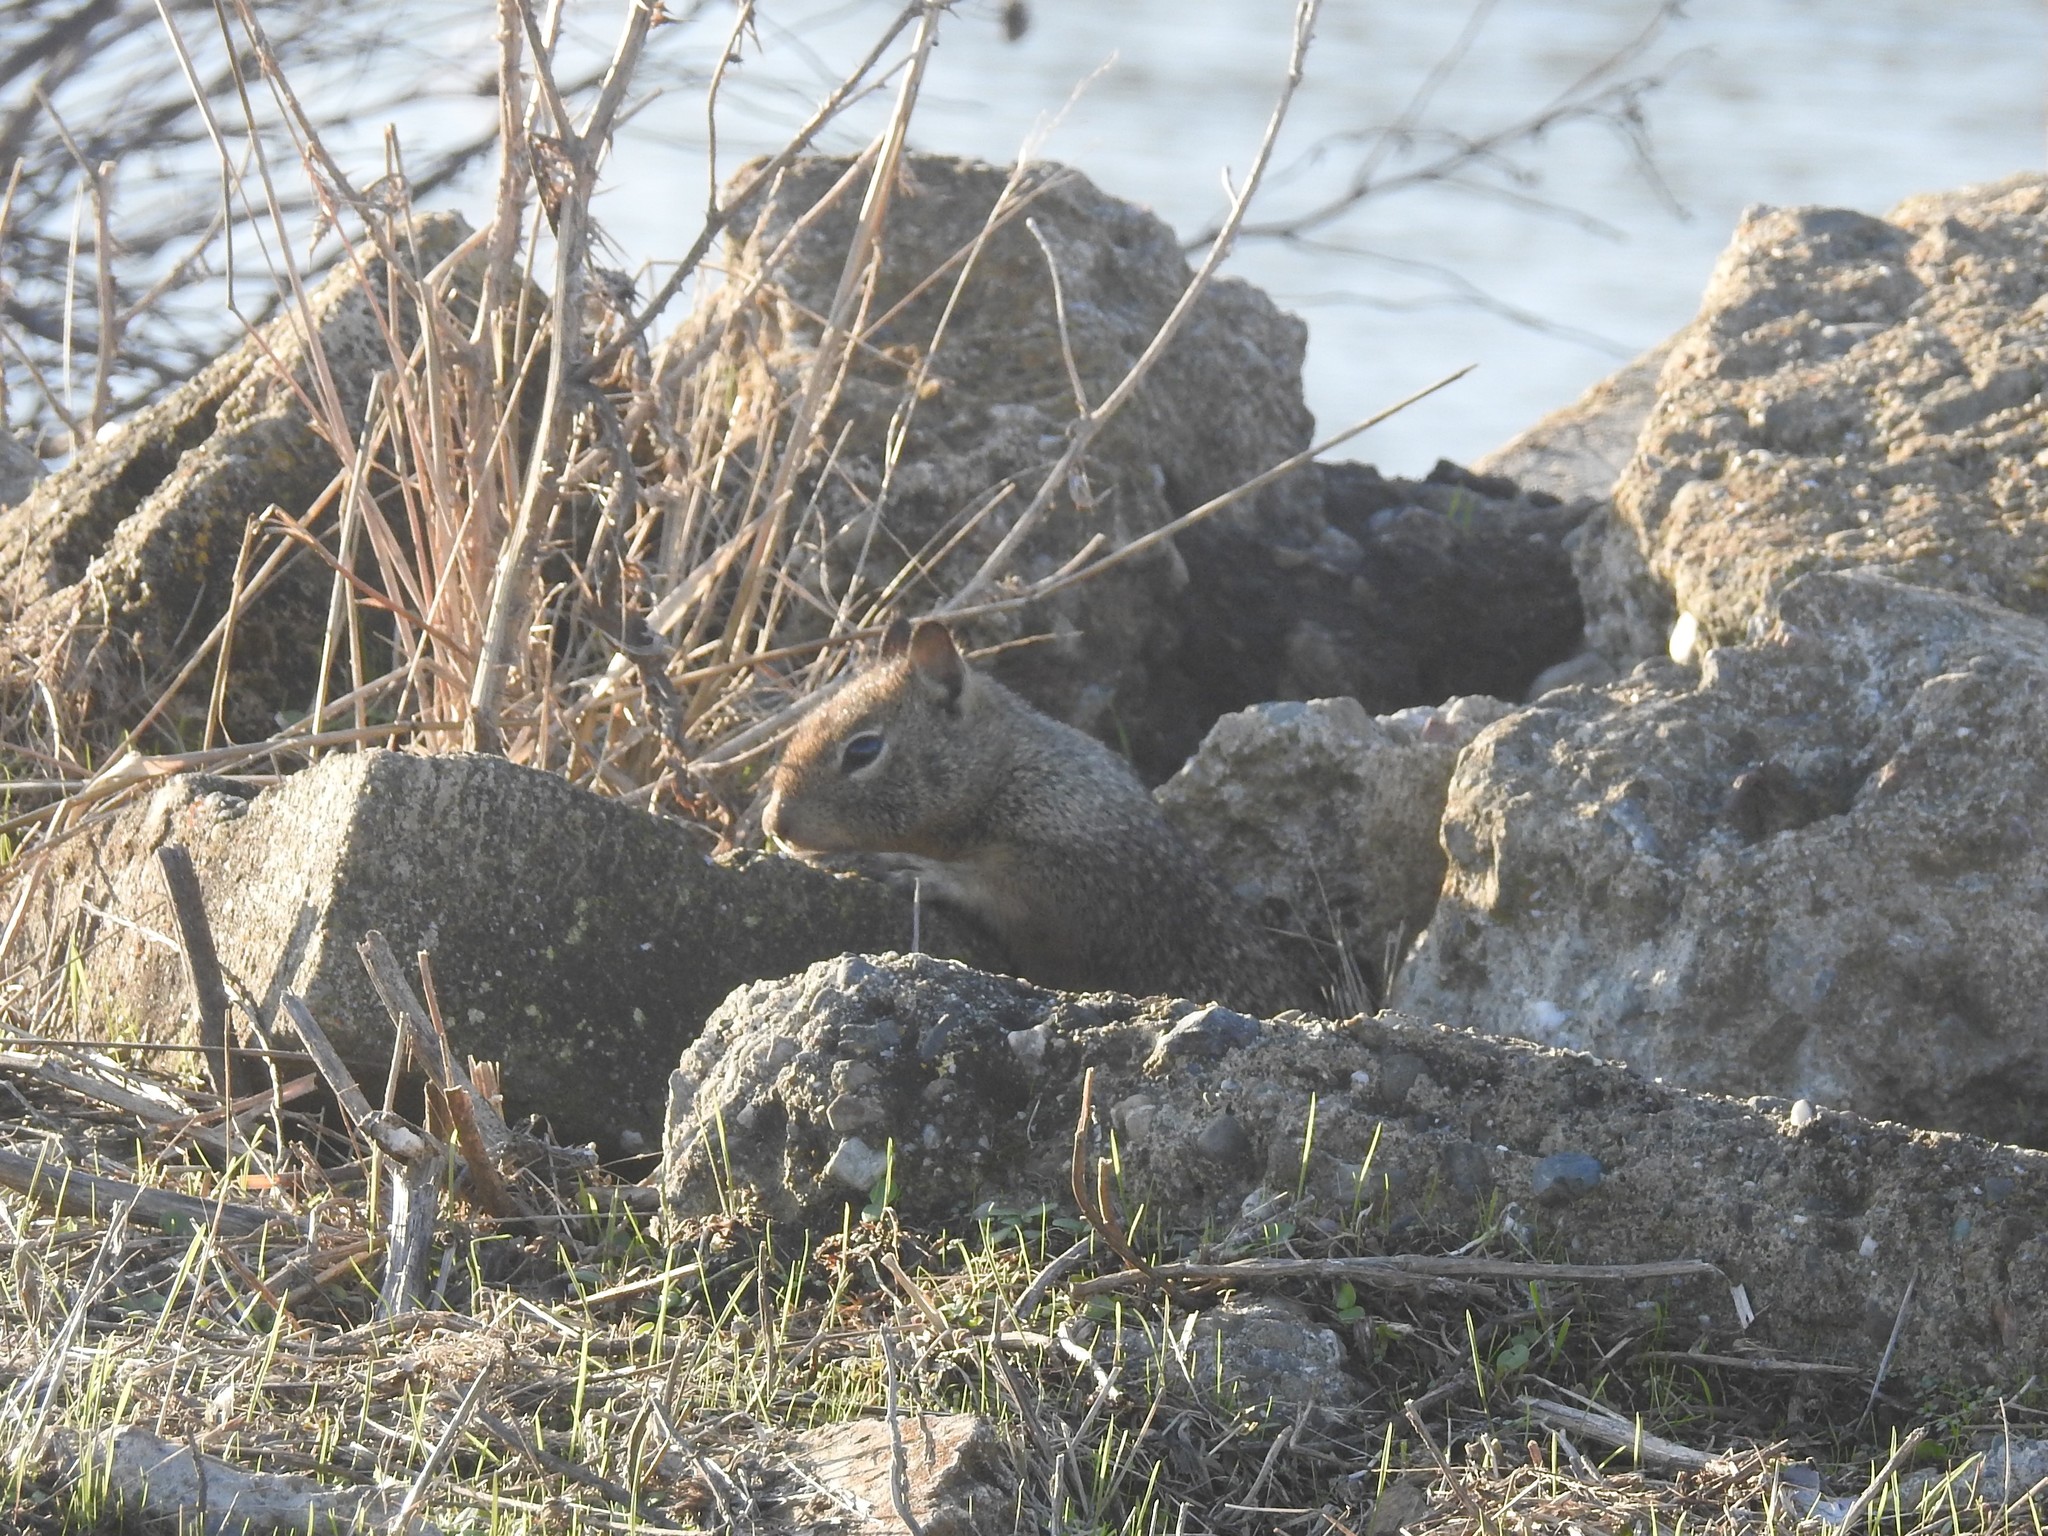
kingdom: Animalia
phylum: Chordata
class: Mammalia
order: Rodentia
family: Sciuridae
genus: Otospermophilus
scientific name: Otospermophilus beecheyi
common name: California ground squirrel
